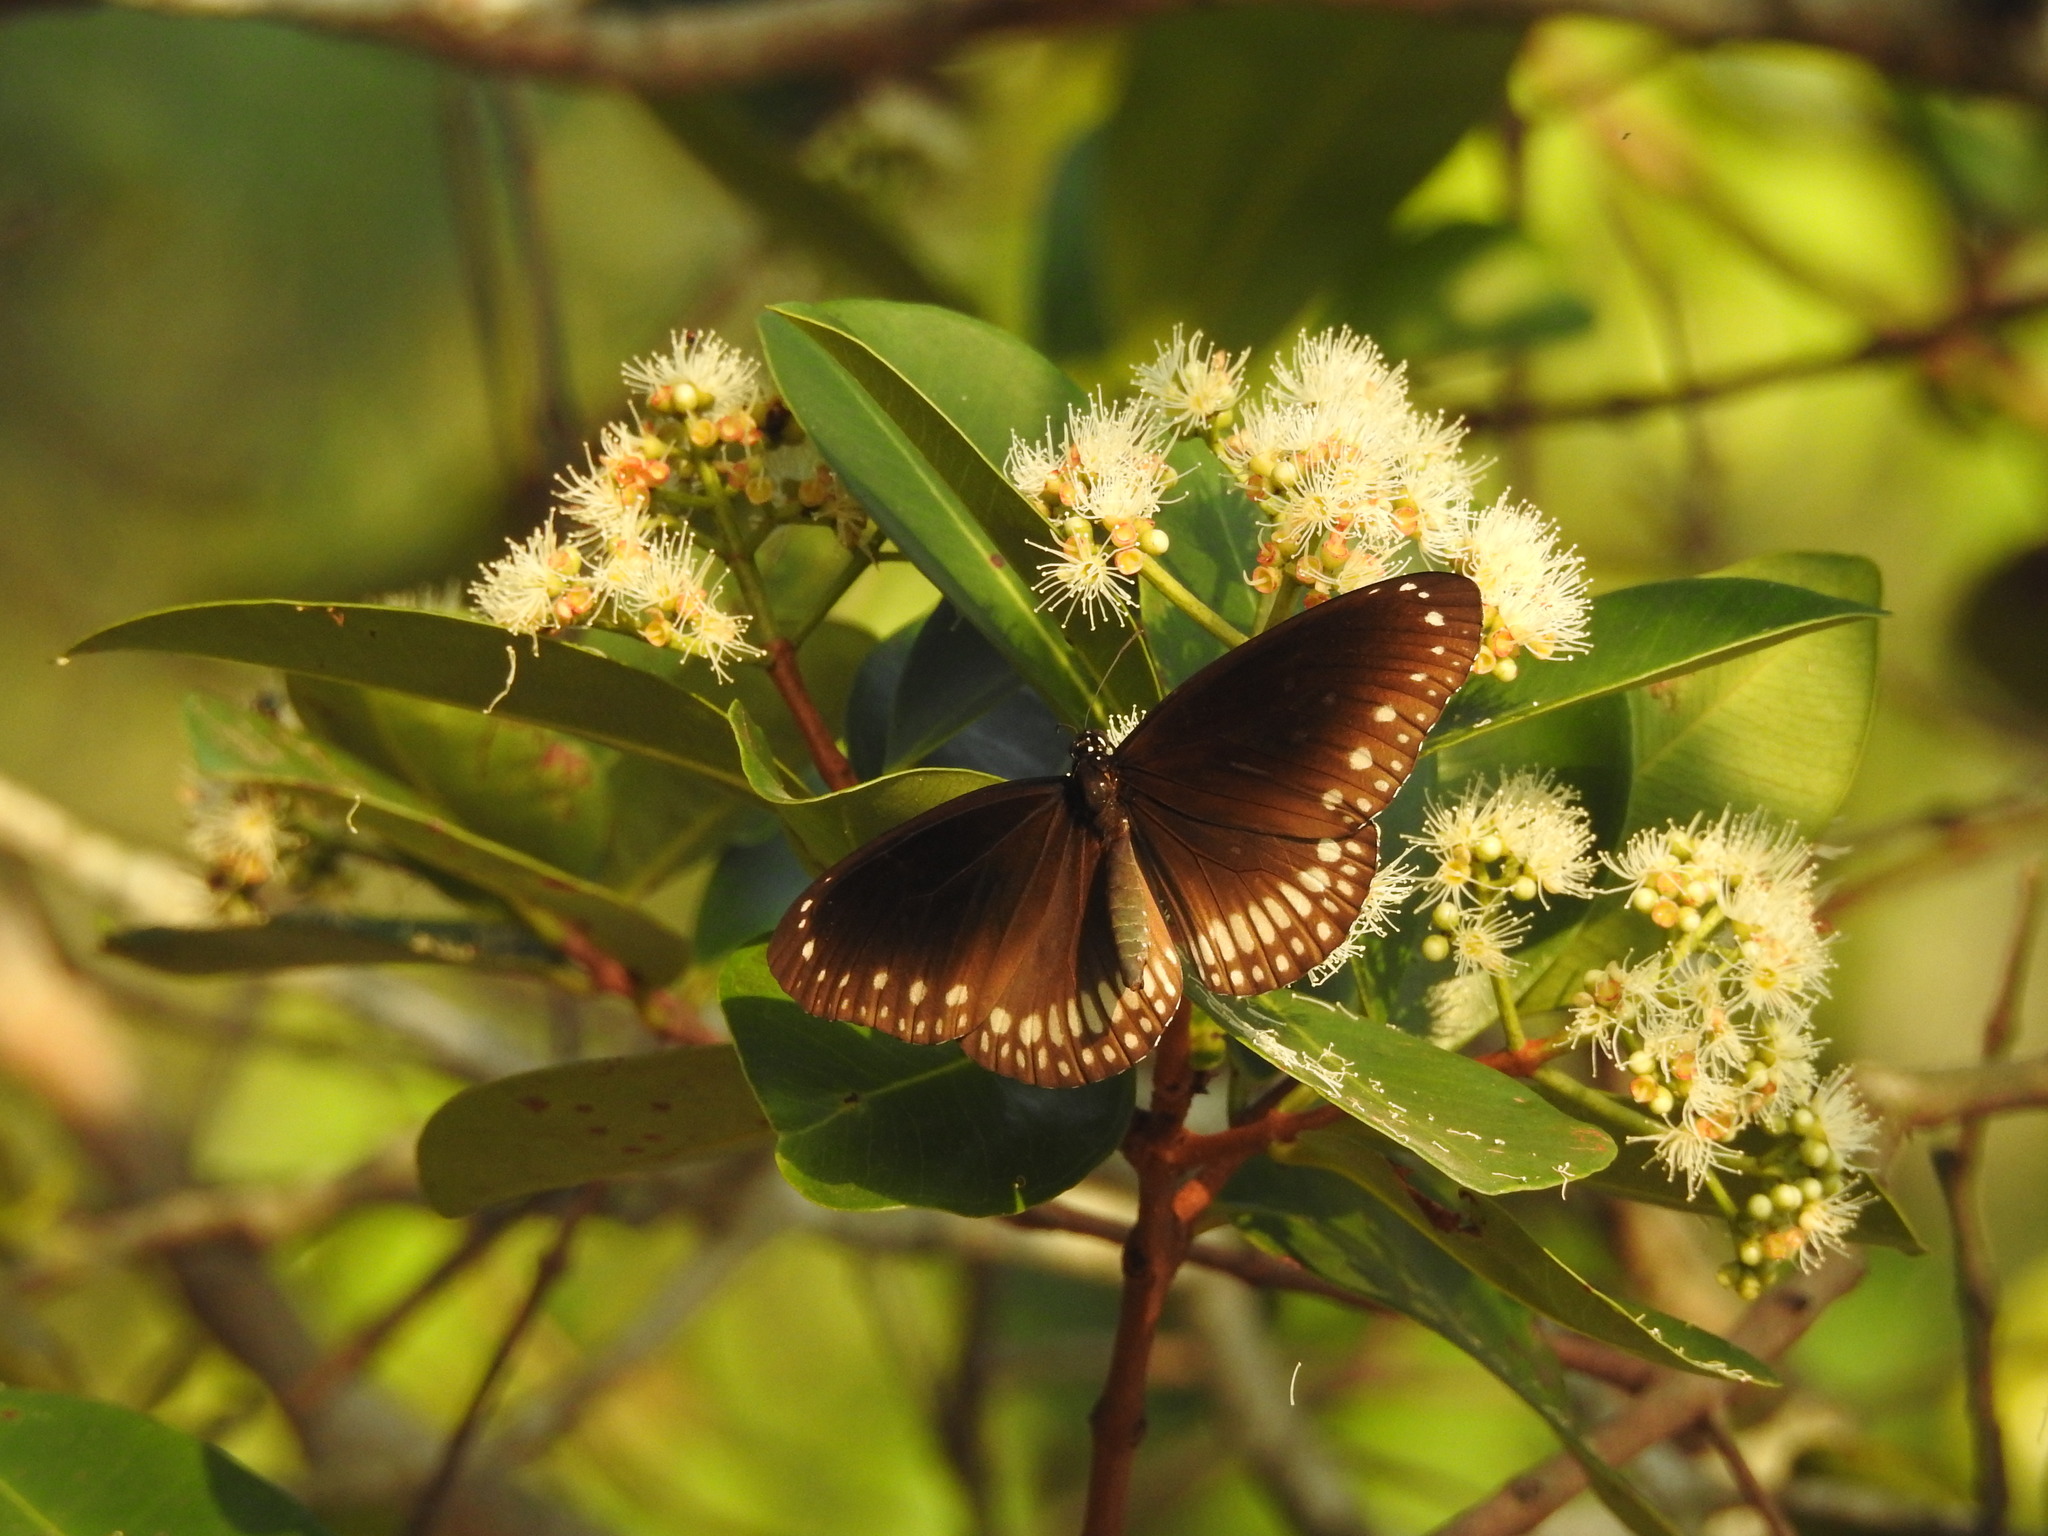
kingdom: Animalia
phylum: Arthropoda
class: Insecta
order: Lepidoptera
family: Nymphalidae
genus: Euploea
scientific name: Euploea core
